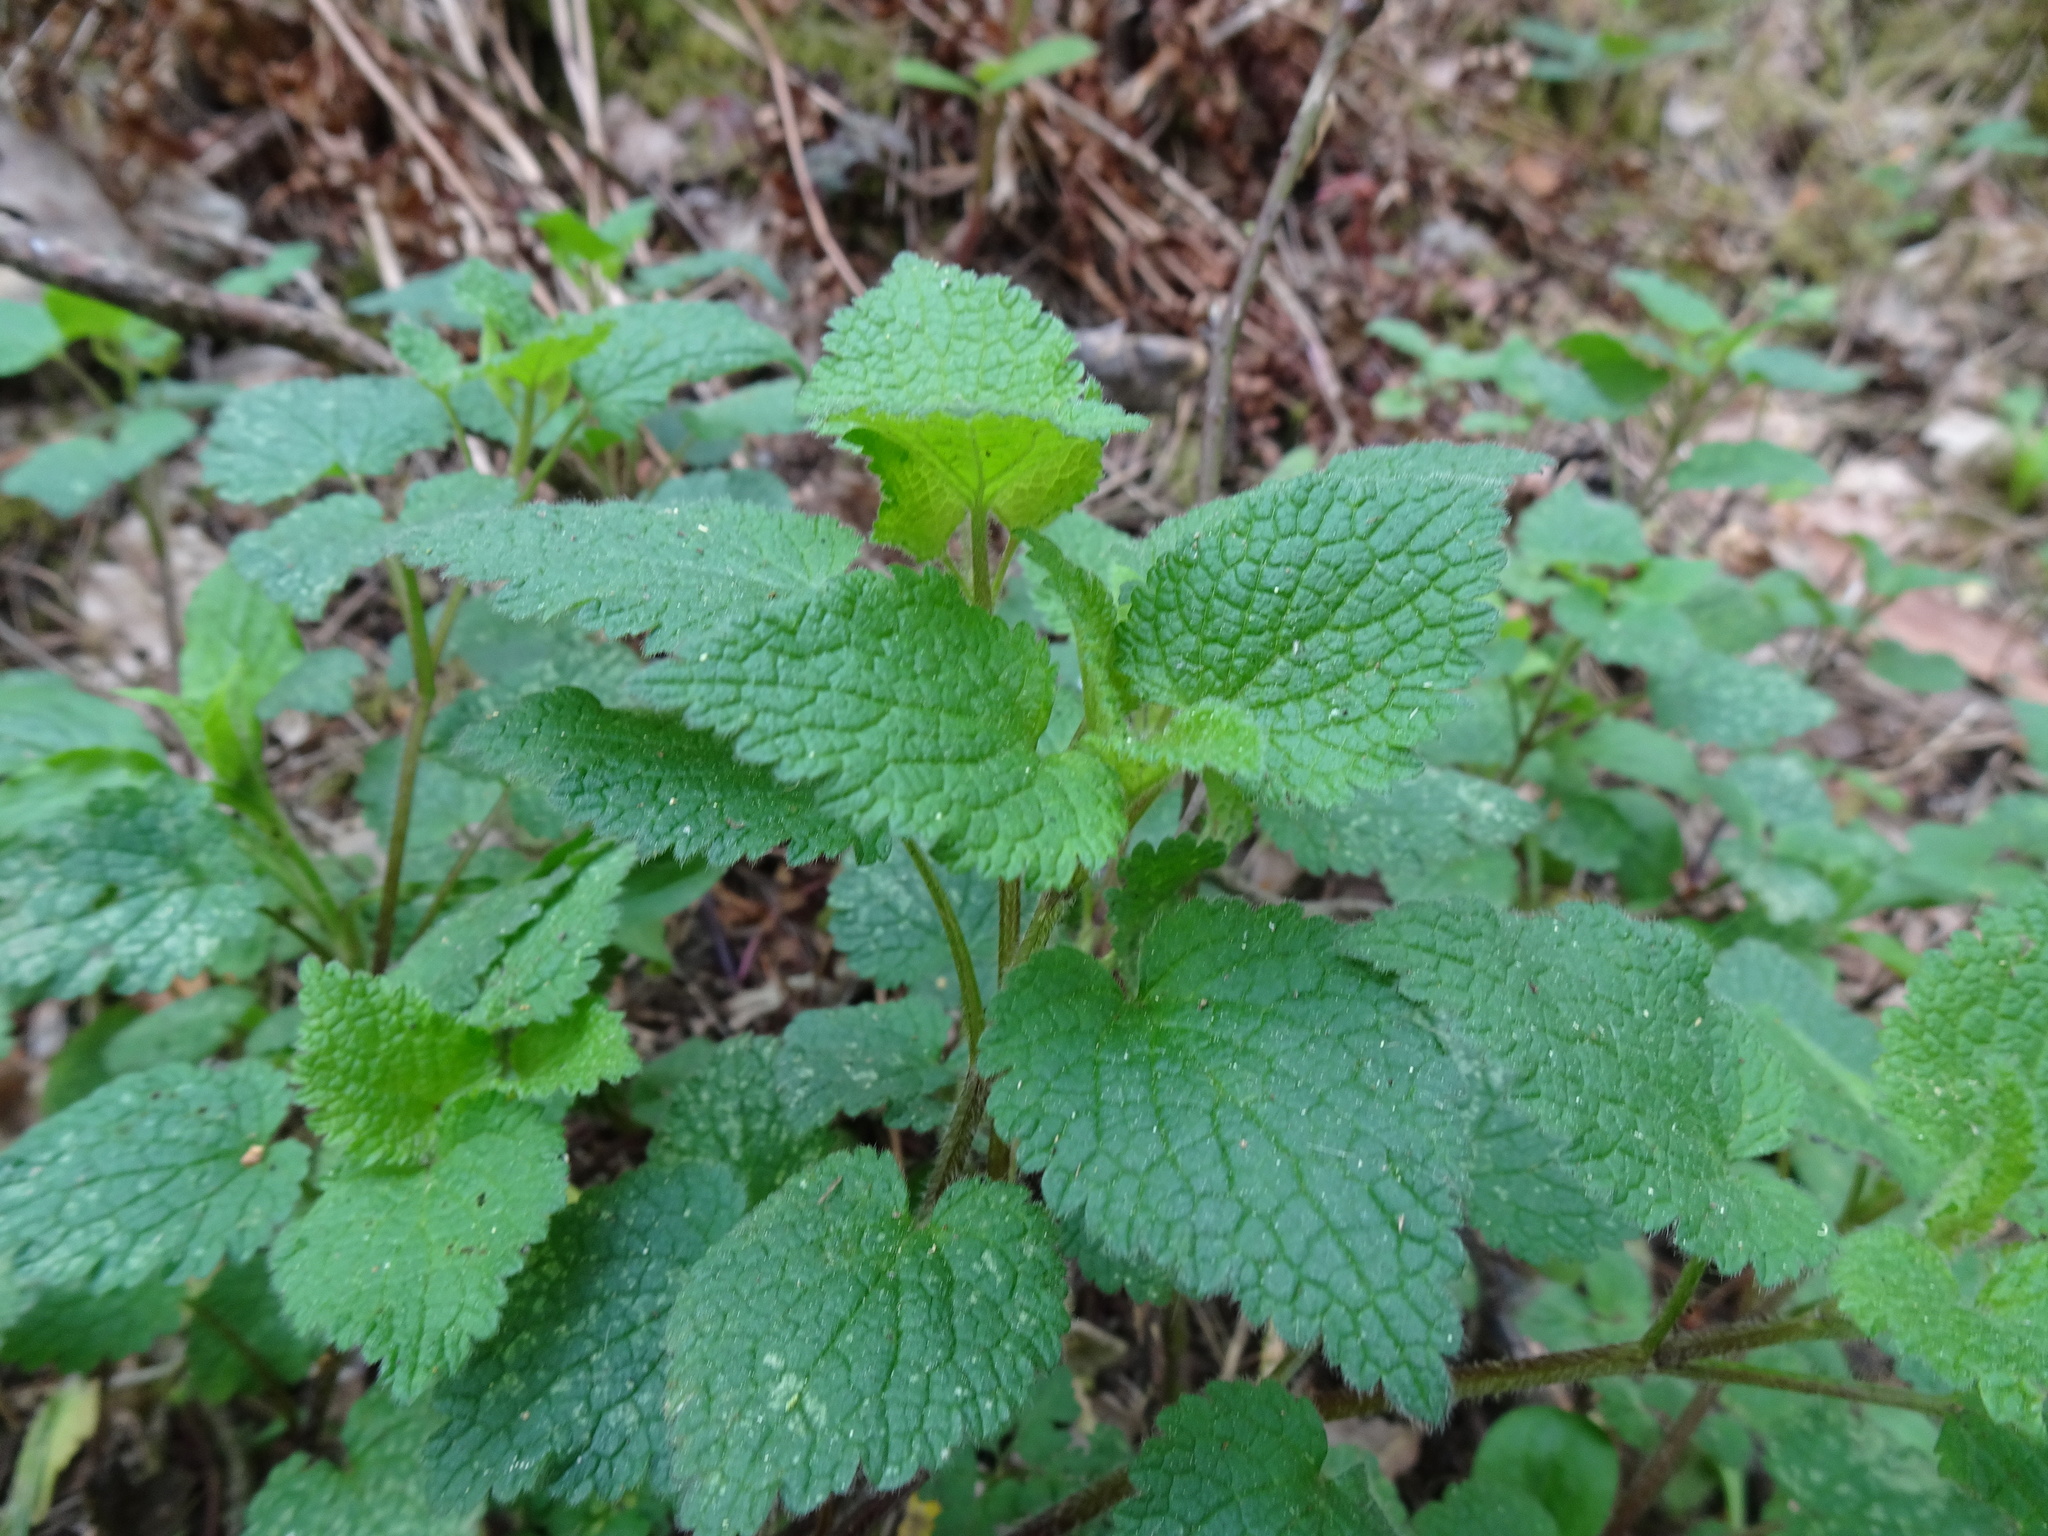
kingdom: Plantae
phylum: Tracheophyta
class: Magnoliopsida
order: Lamiales
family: Lamiaceae
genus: Stachys
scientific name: Stachys sylvatica
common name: Hedge woundwort
